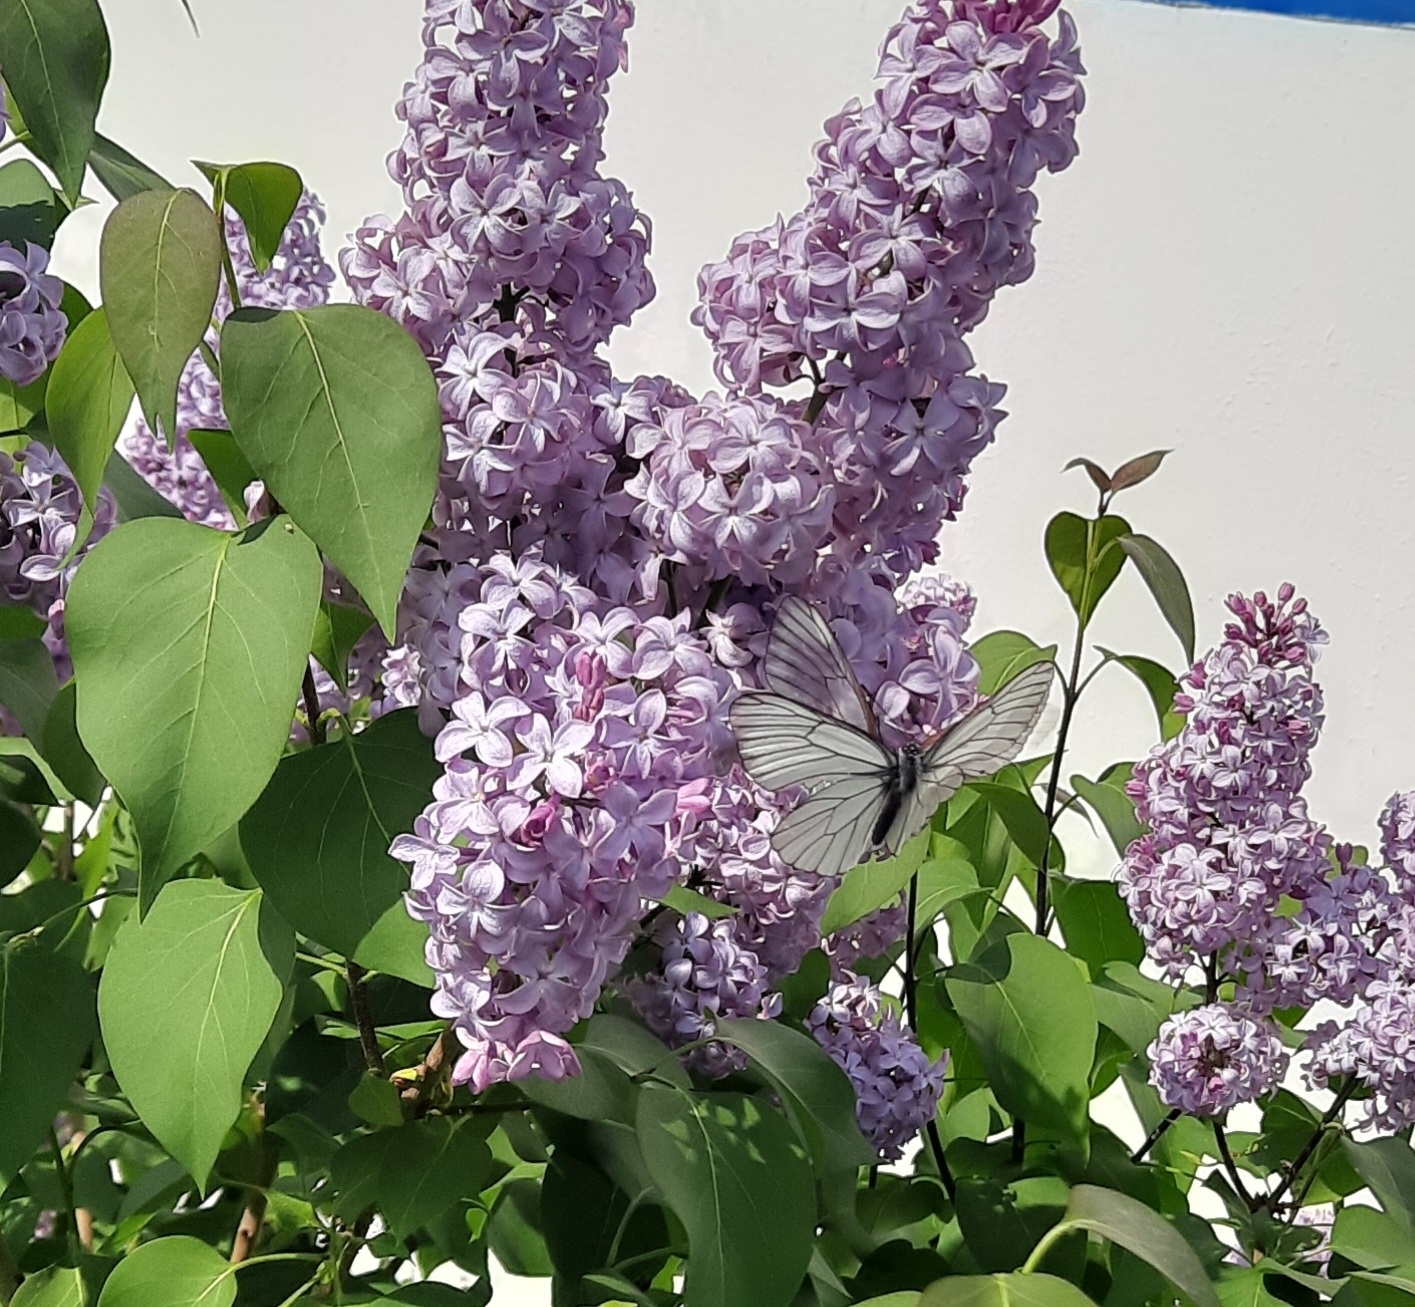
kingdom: Animalia
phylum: Arthropoda
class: Insecta
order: Lepidoptera
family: Pieridae
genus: Aporia
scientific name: Aporia crataegi
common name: Black-veined white
